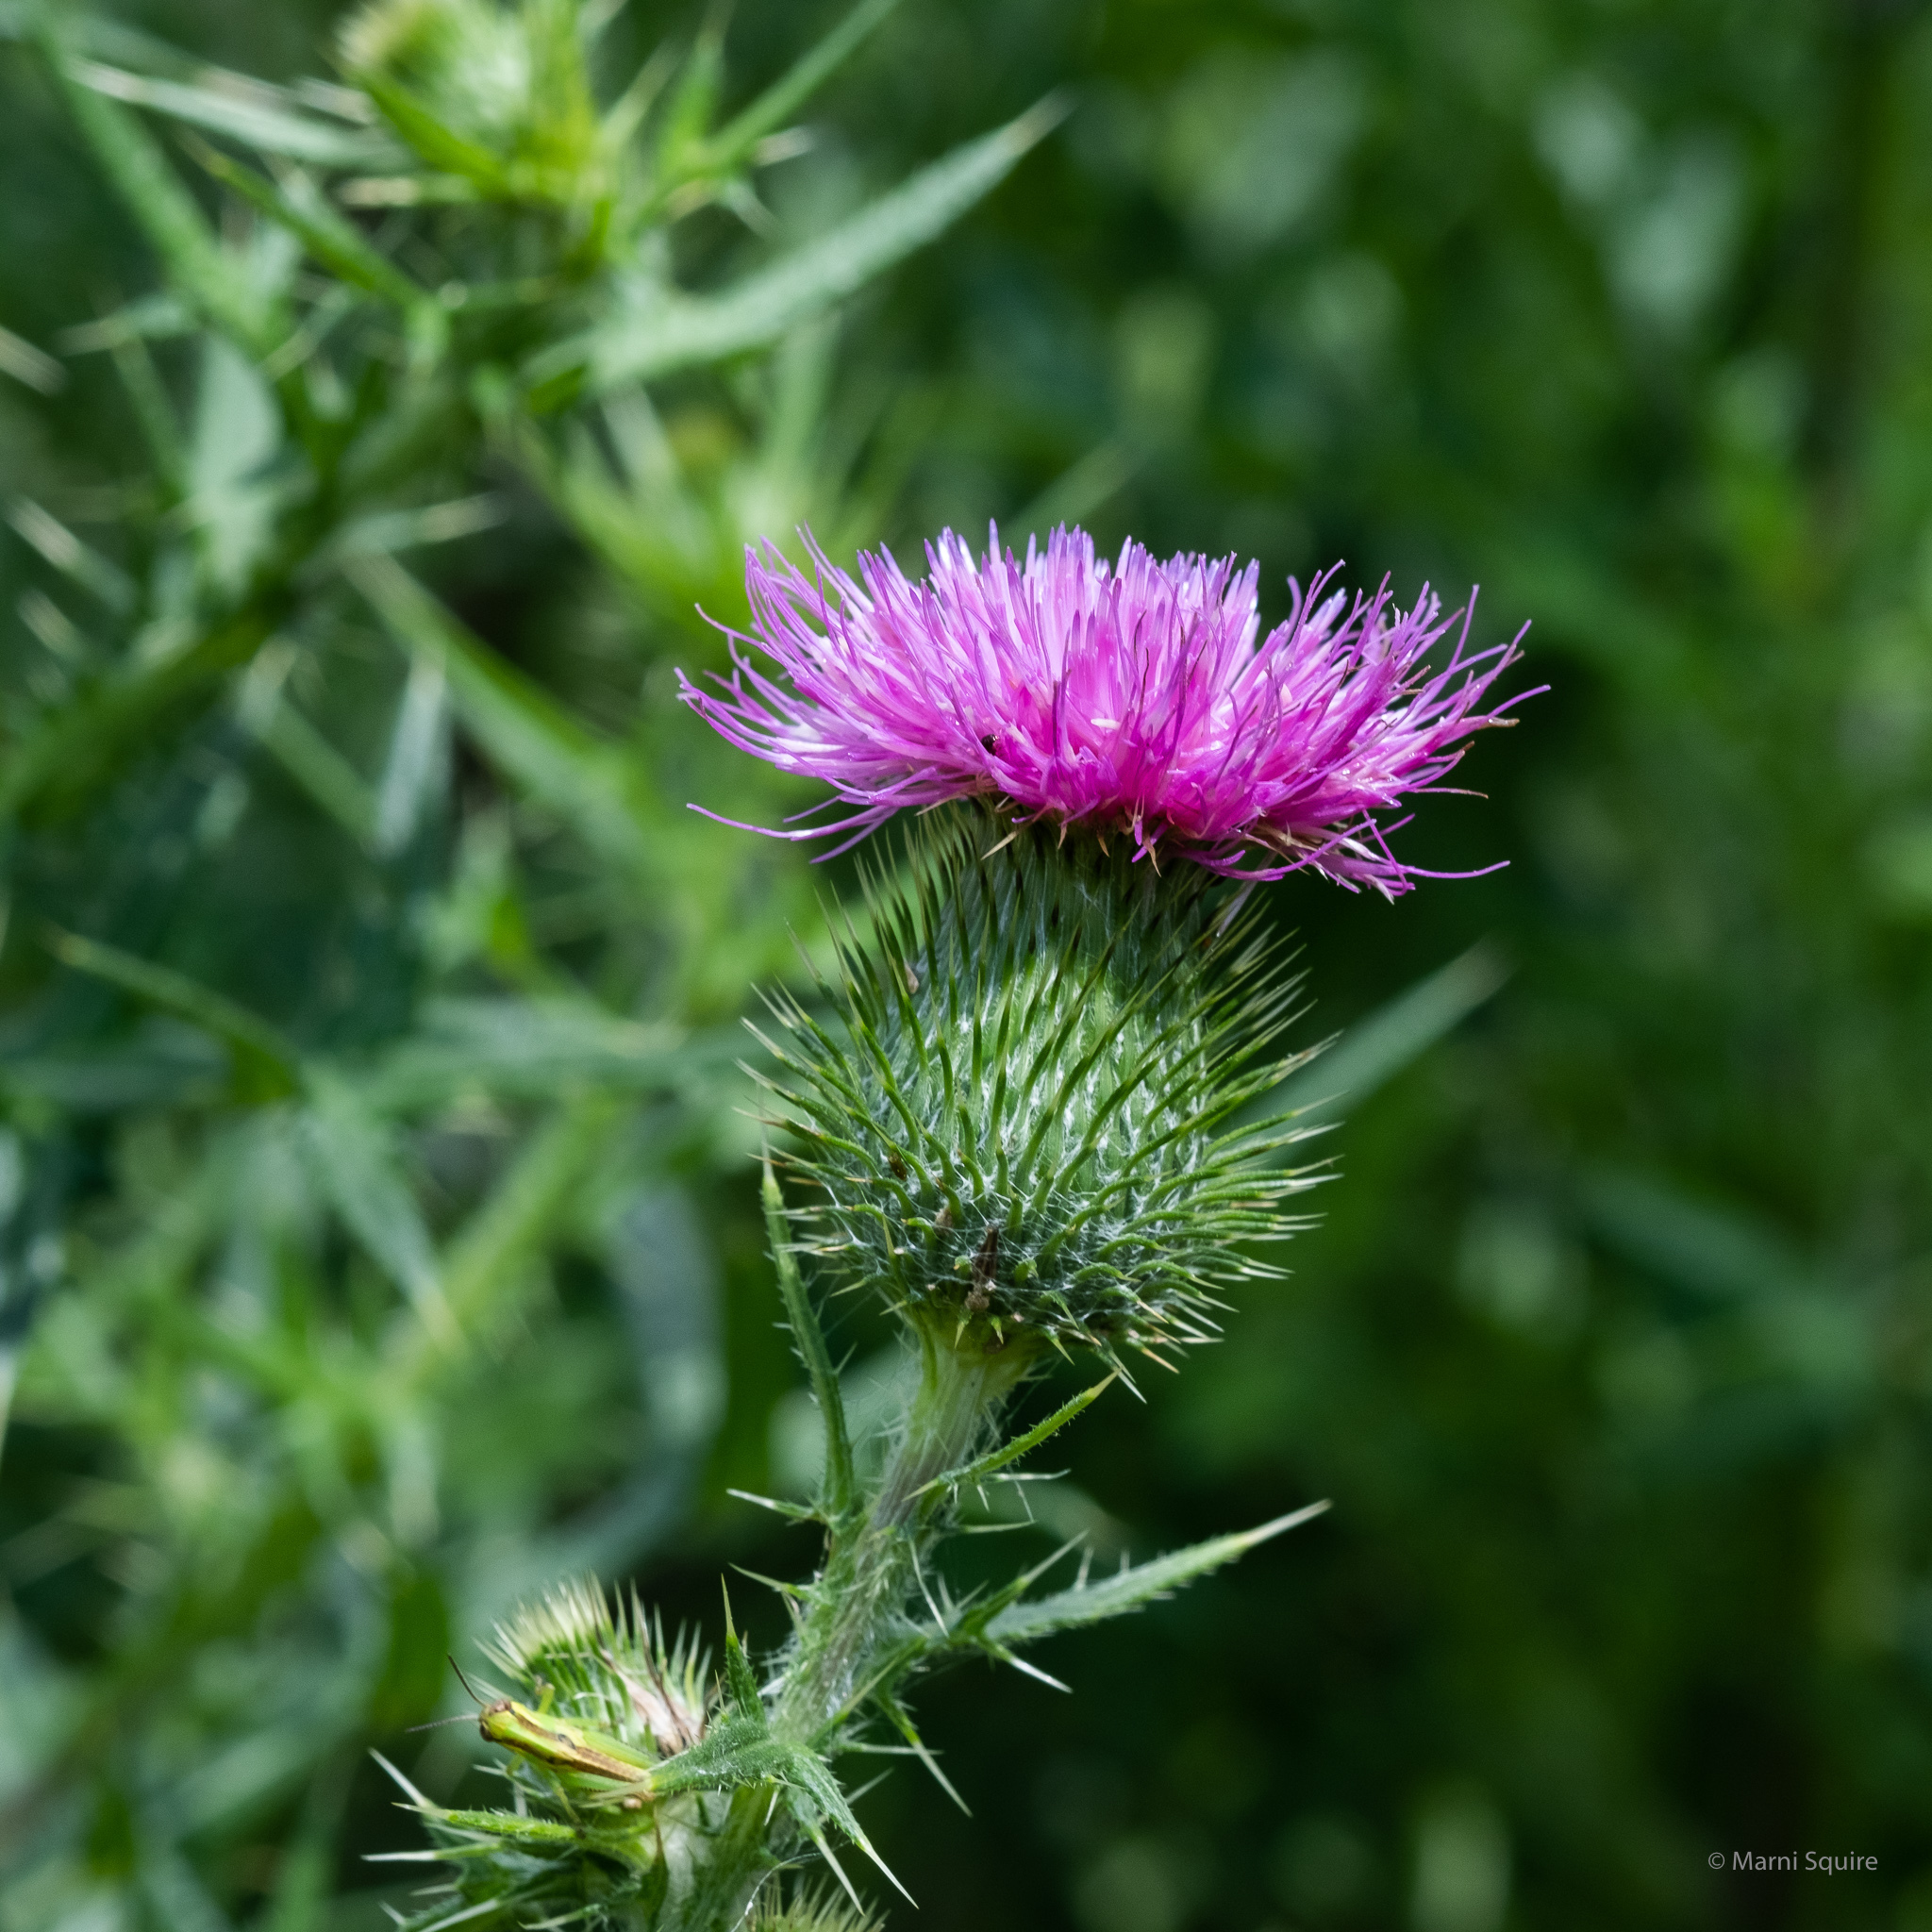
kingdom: Plantae
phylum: Tracheophyta
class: Magnoliopsida
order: Asterales
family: Asteraceae
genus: Cirsium
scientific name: Cirsium vulgare
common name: Bull thistle
